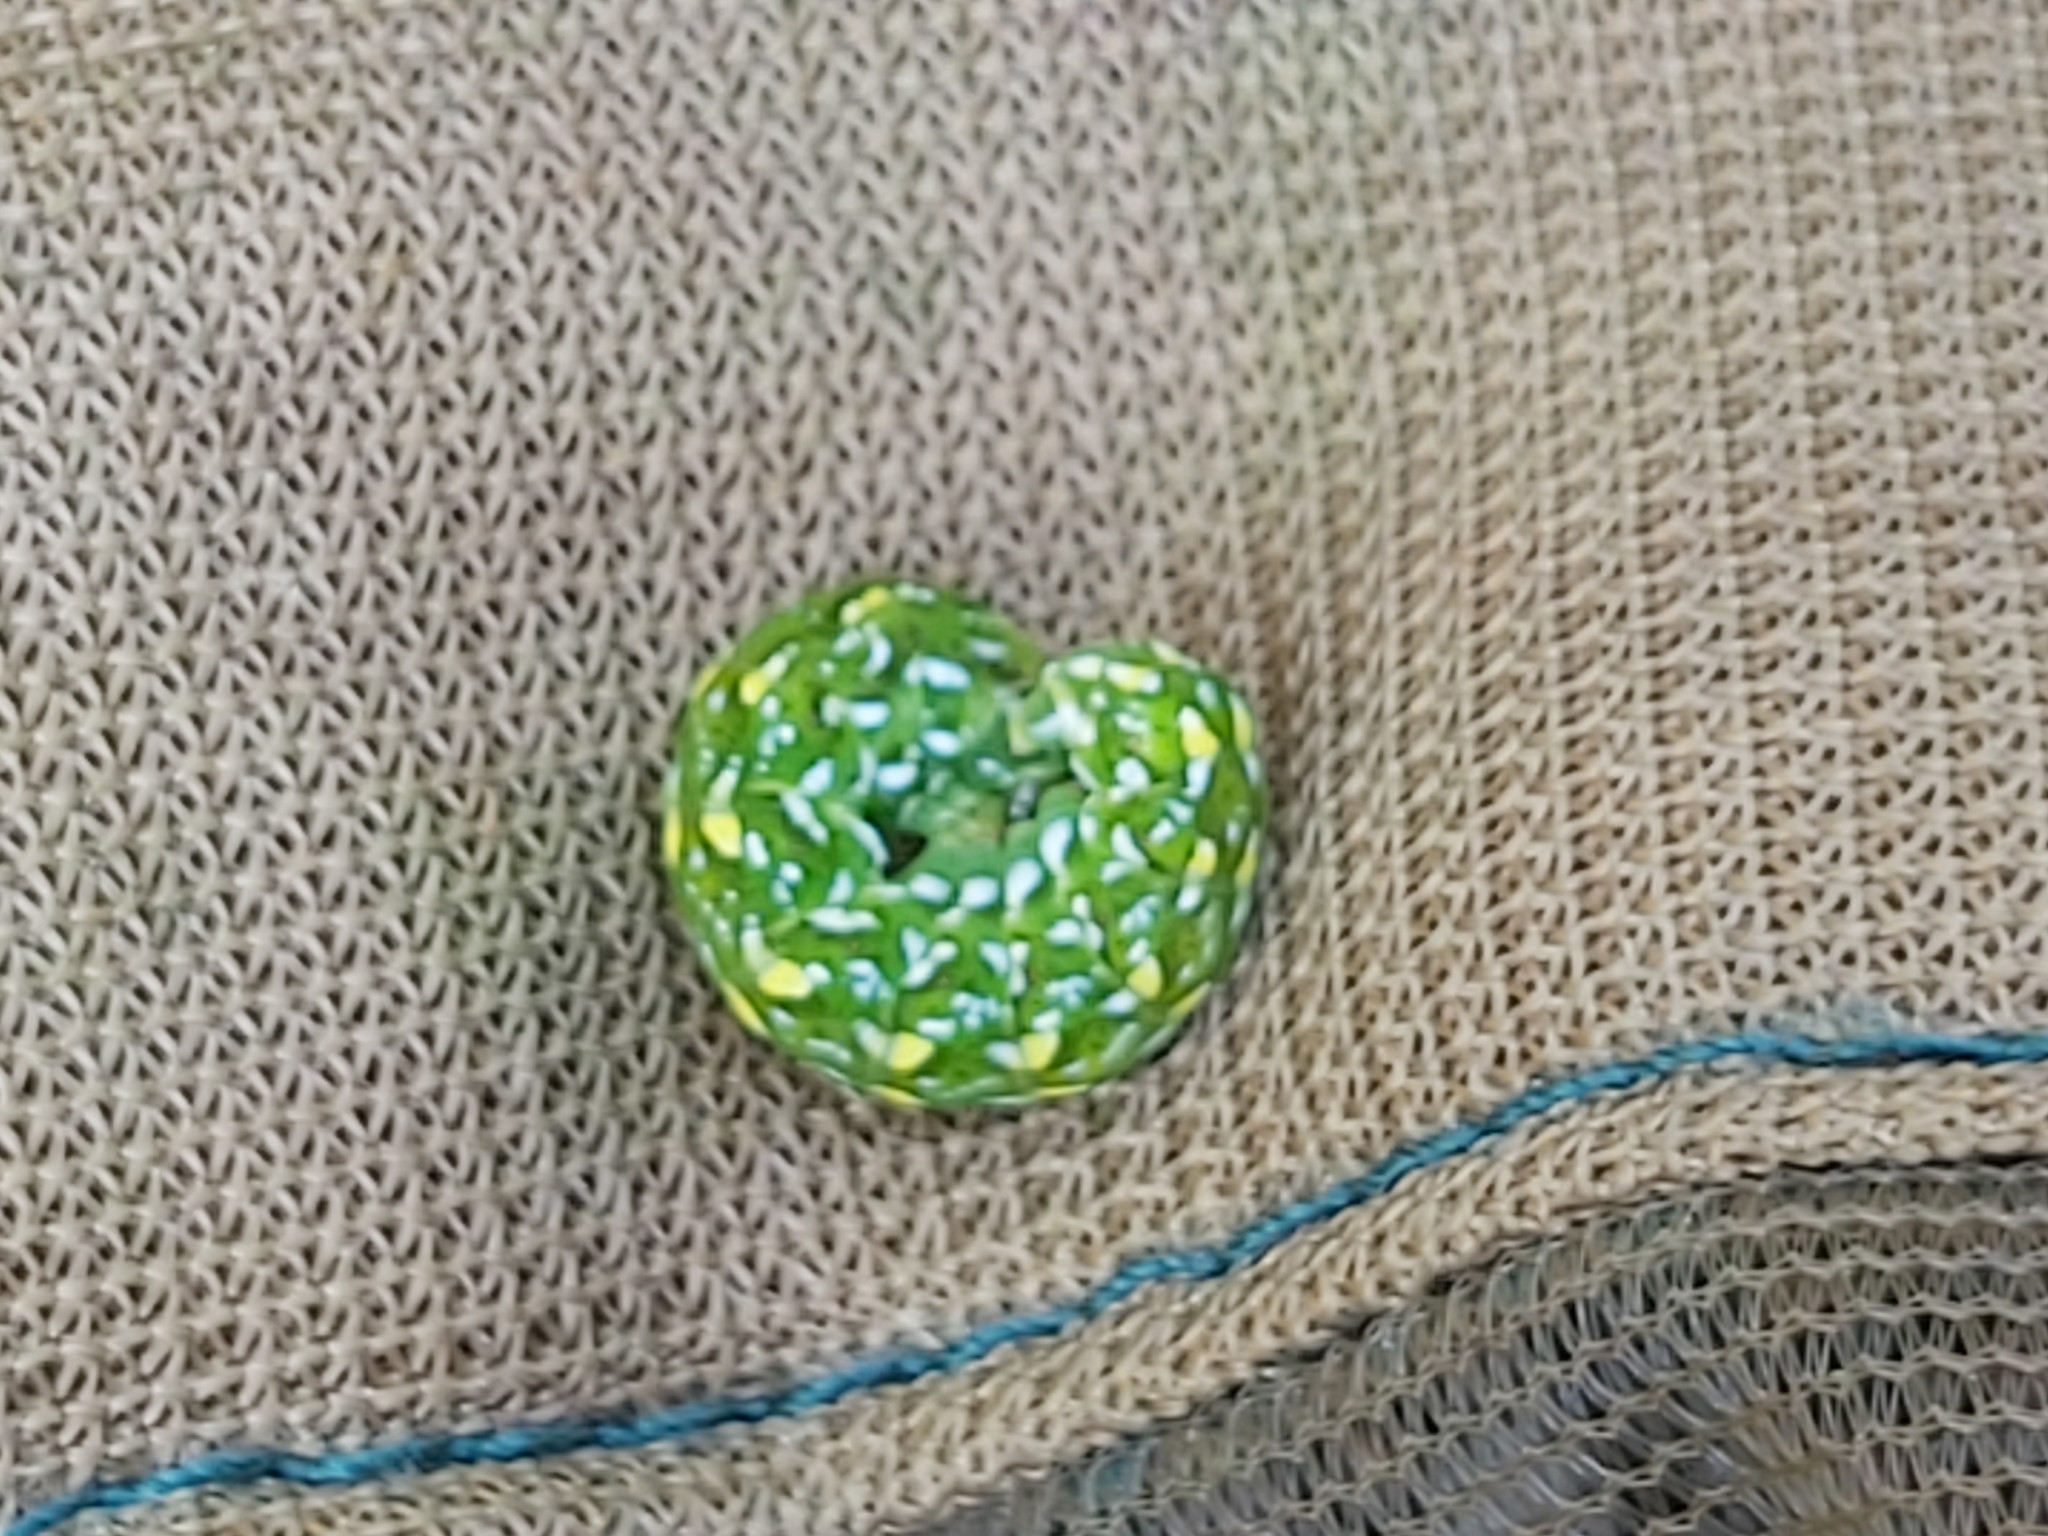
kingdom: Animalia
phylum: Arthropoda
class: Insecta
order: Lepidoptera
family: Noctuidae
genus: Anarta
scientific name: Anarta myrtilli
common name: Beautiful yellow underwing
